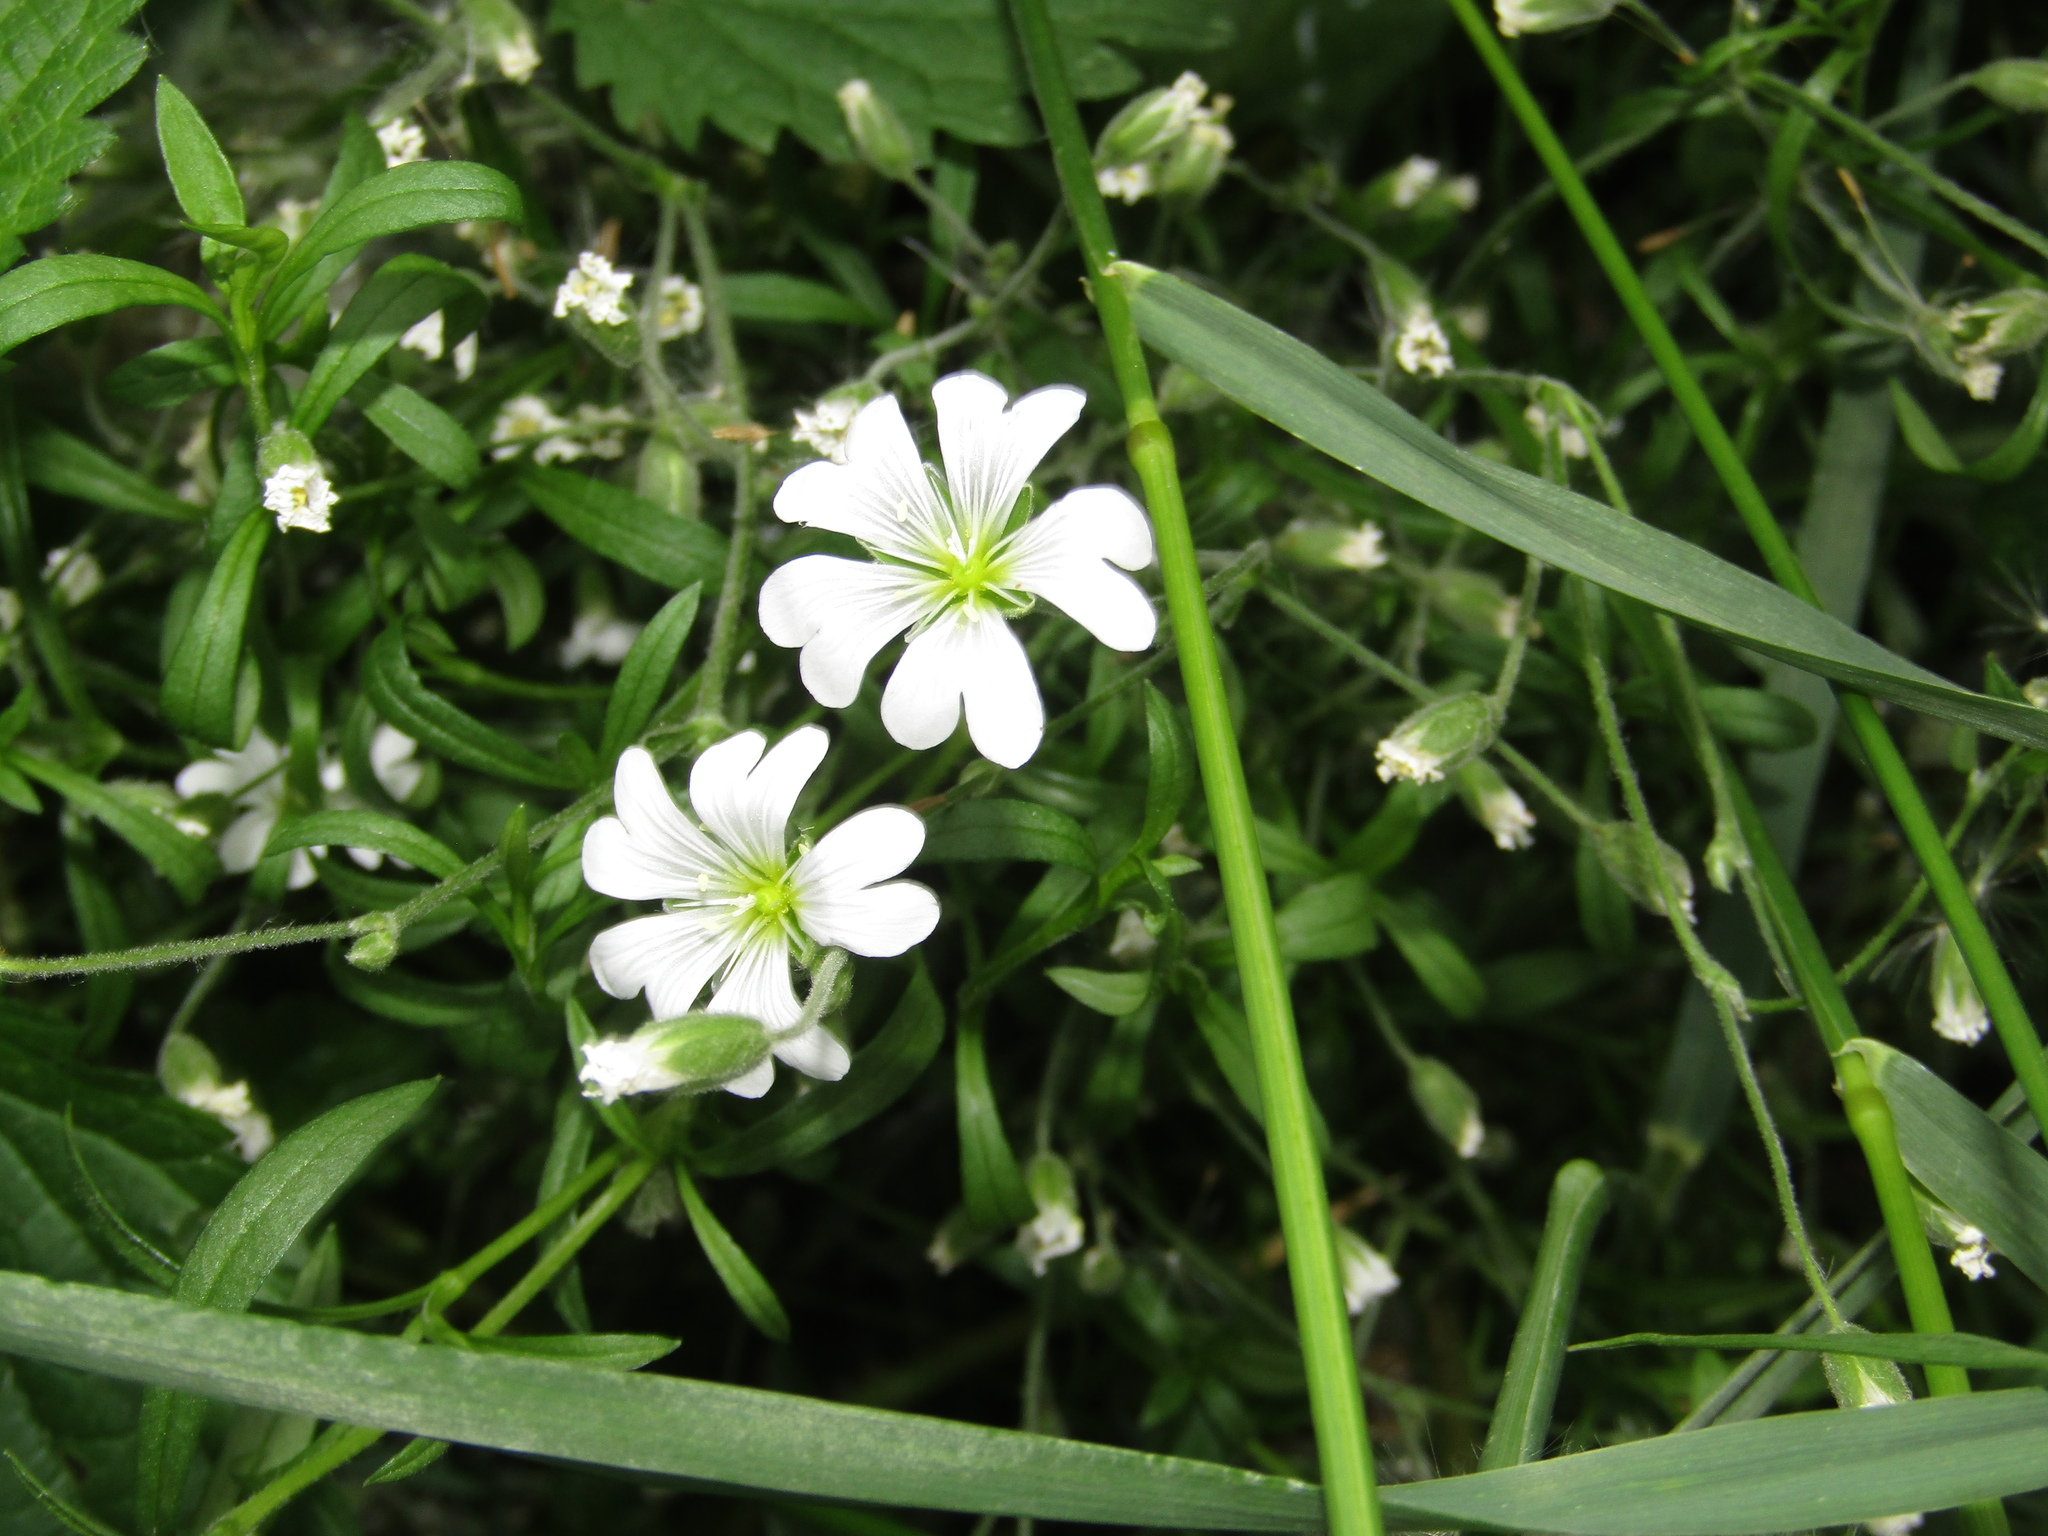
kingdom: Plantae
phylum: Tracheophyta
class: Magnoliopsida
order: Caryophyllales
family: Caryophyllaceae
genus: Cerastium
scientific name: Cerastium arvense
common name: Field mouse-ear
